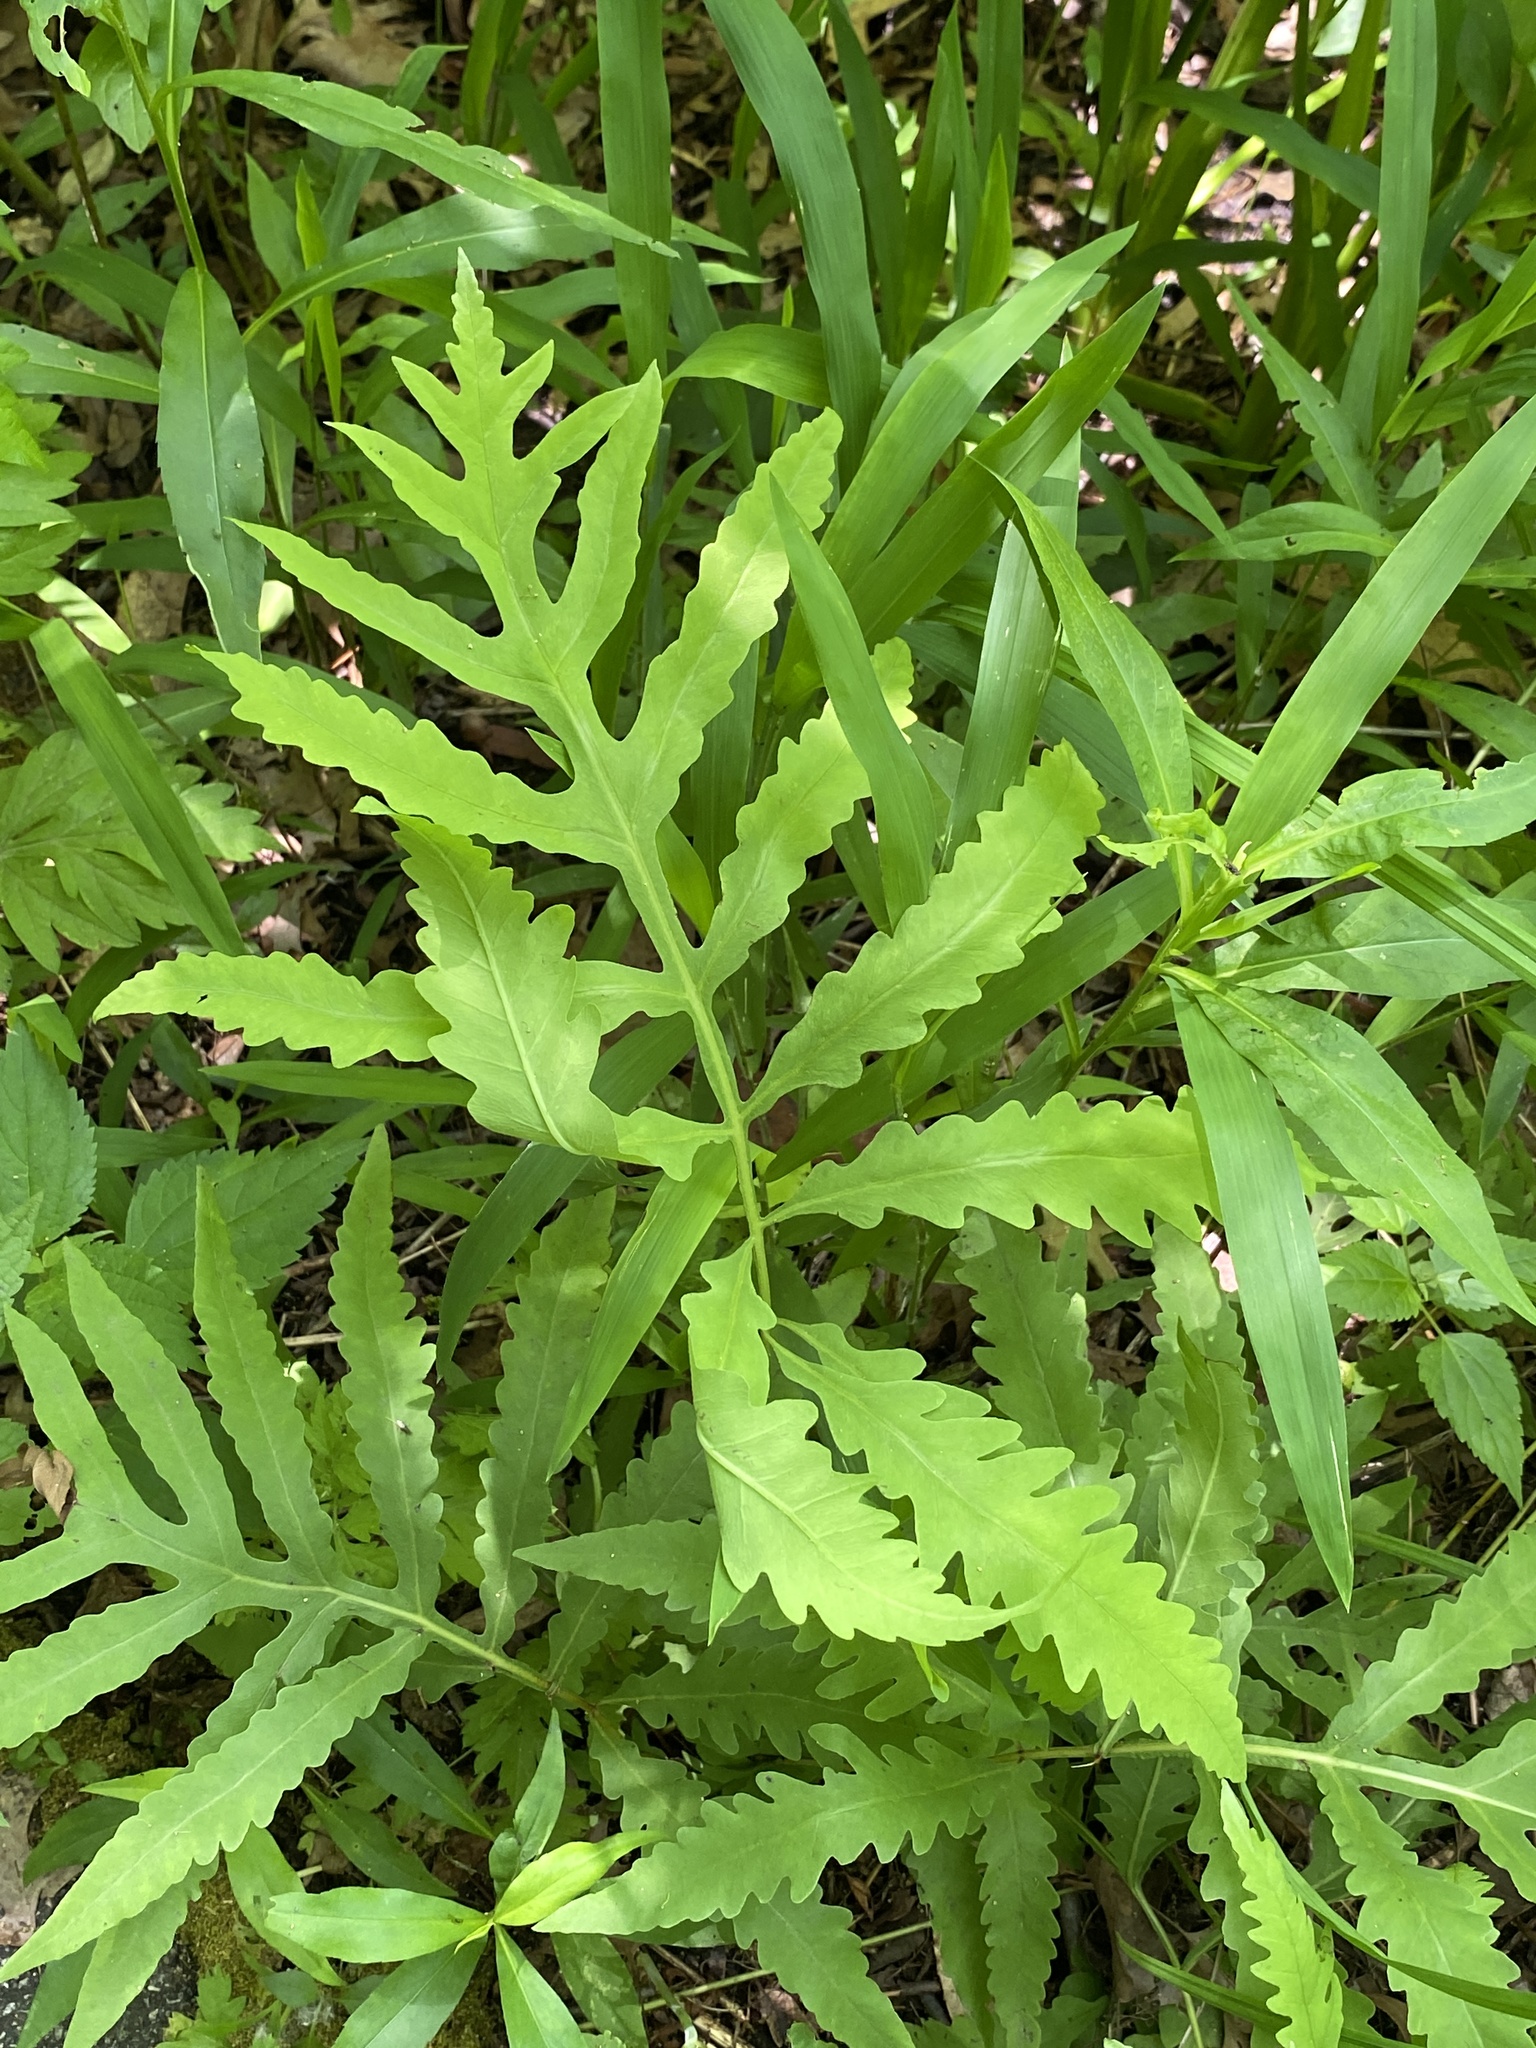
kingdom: Plantae
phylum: Tracheophyta
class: Polypodiopsida
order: Polypodiales
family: Onocleaceae
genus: Onoclea
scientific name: Onoclea sensibilis
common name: Sensitive fern
